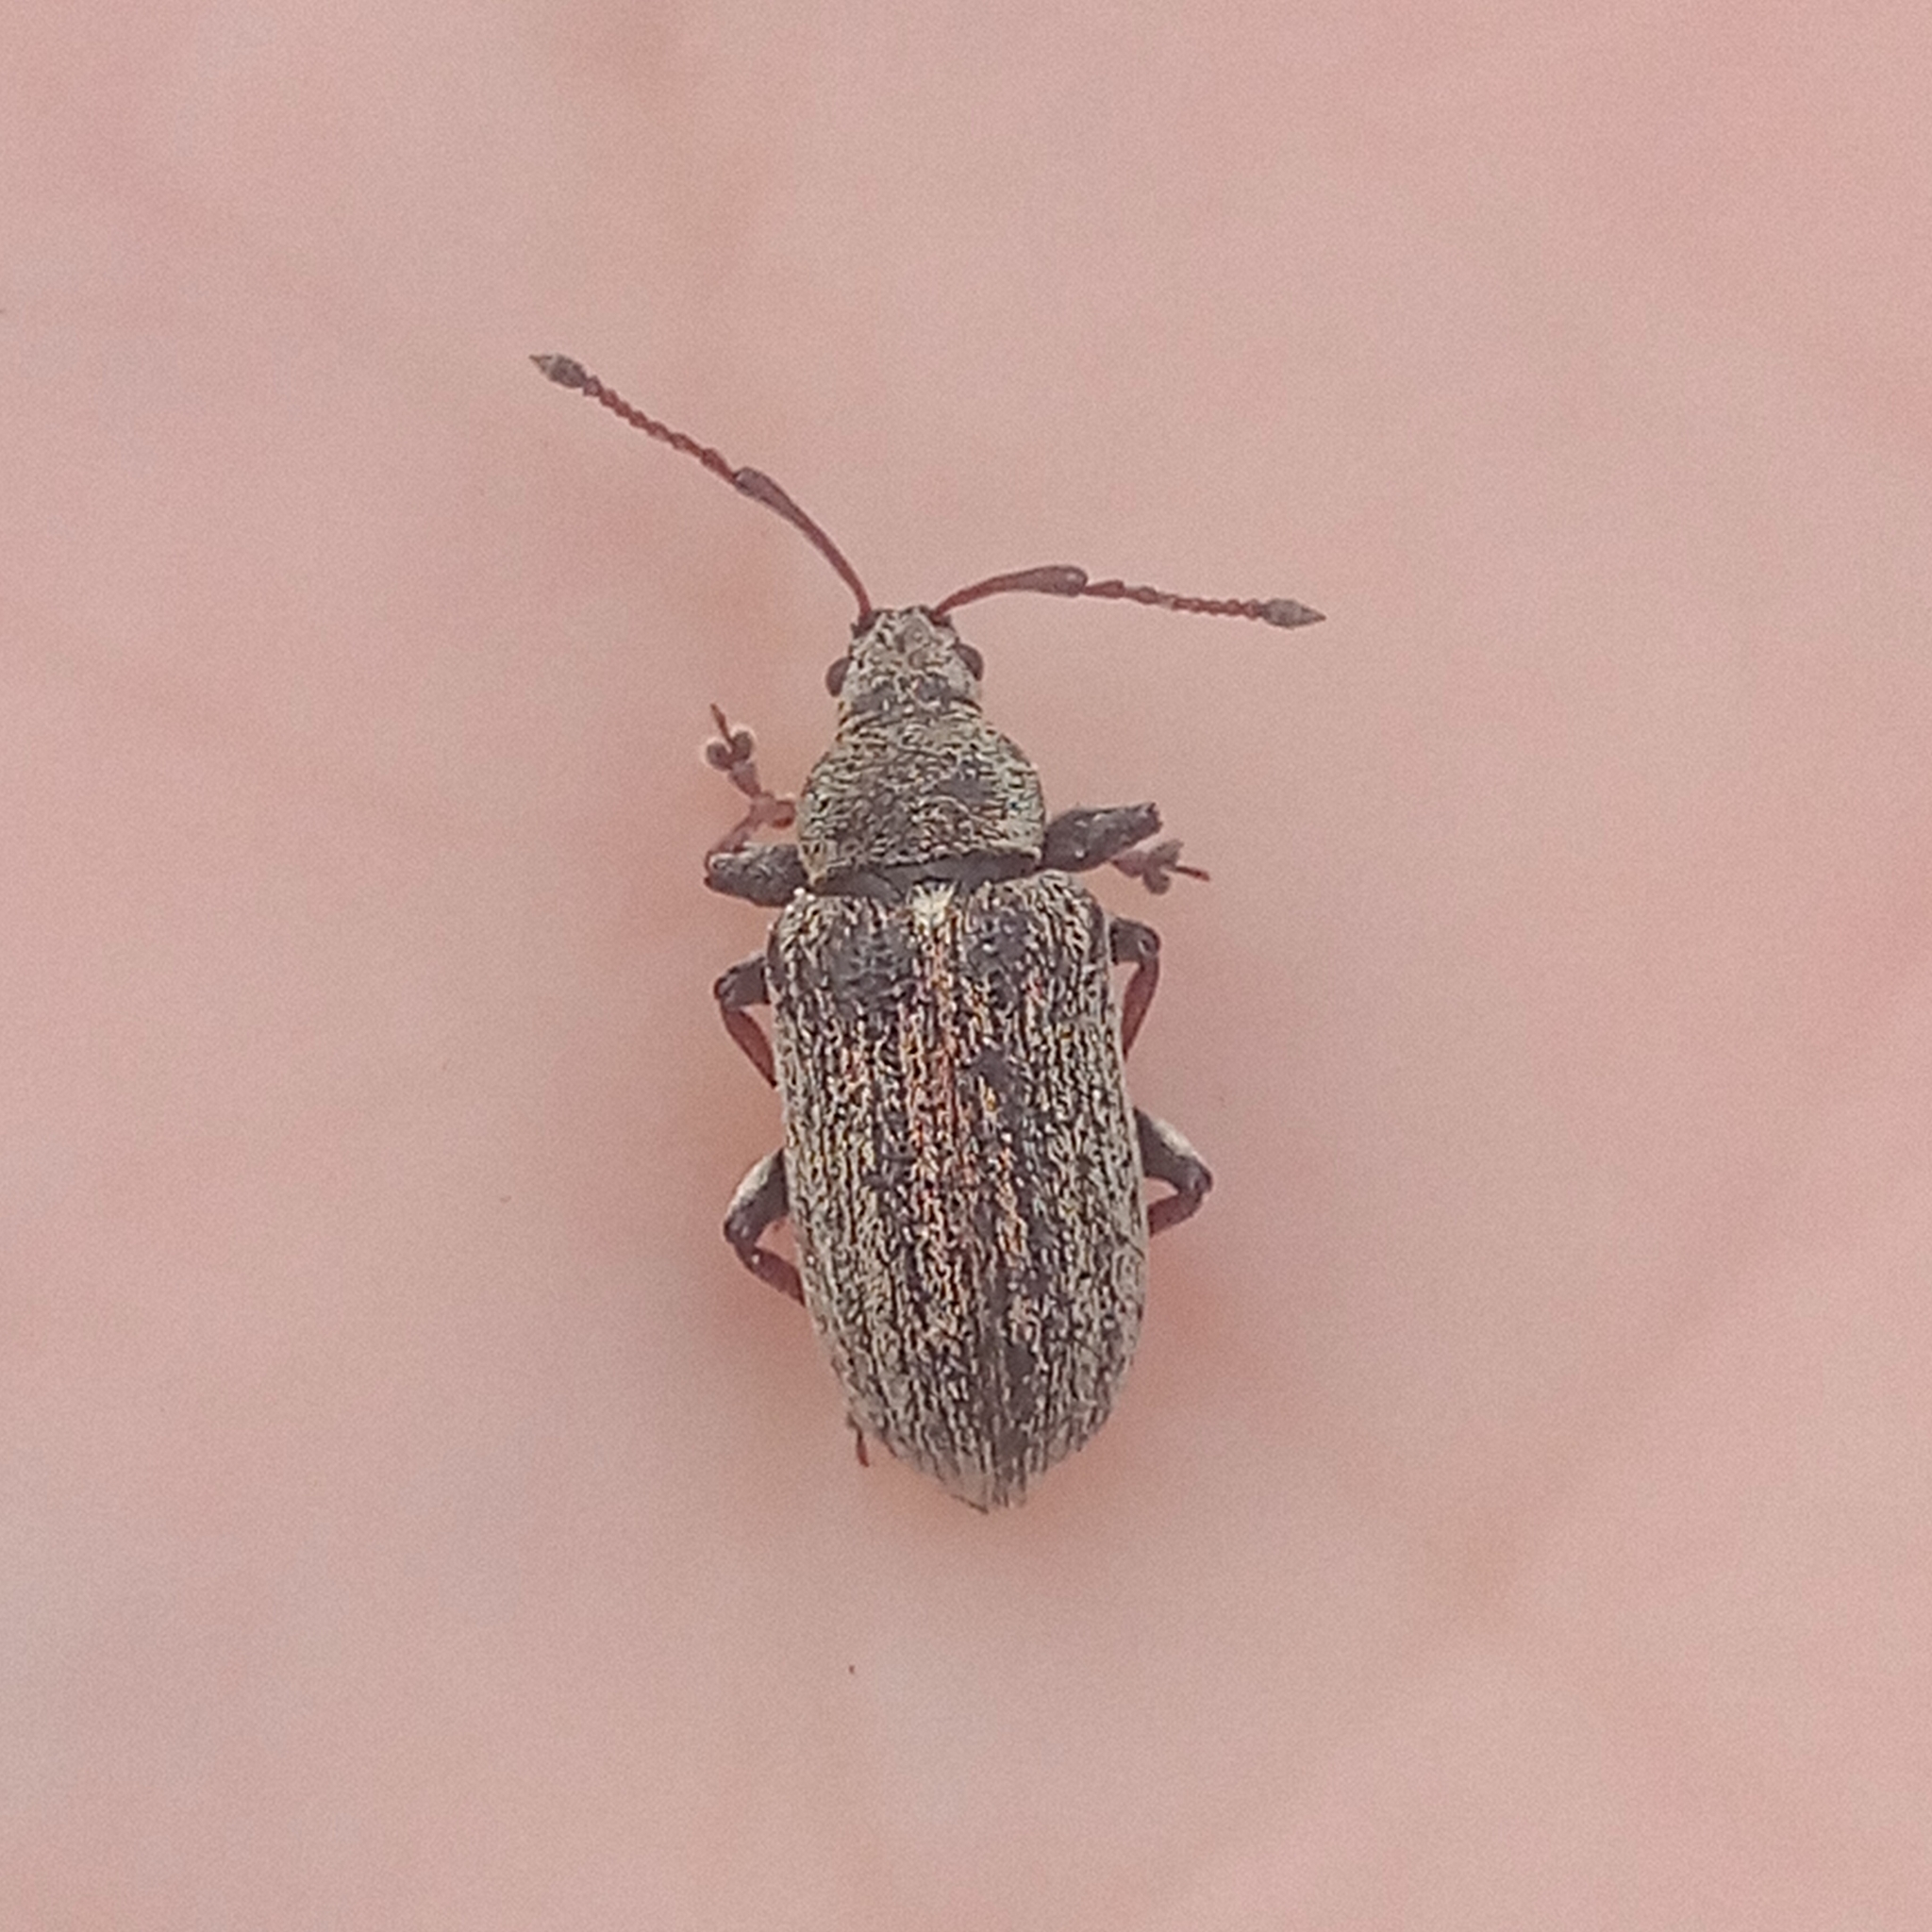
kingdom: Animalia
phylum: Arthropoda
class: Insecta
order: Coleoptera
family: Curculionidae
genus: Phyllobius
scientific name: Phyllobius pyri
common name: Common leaf weevil
